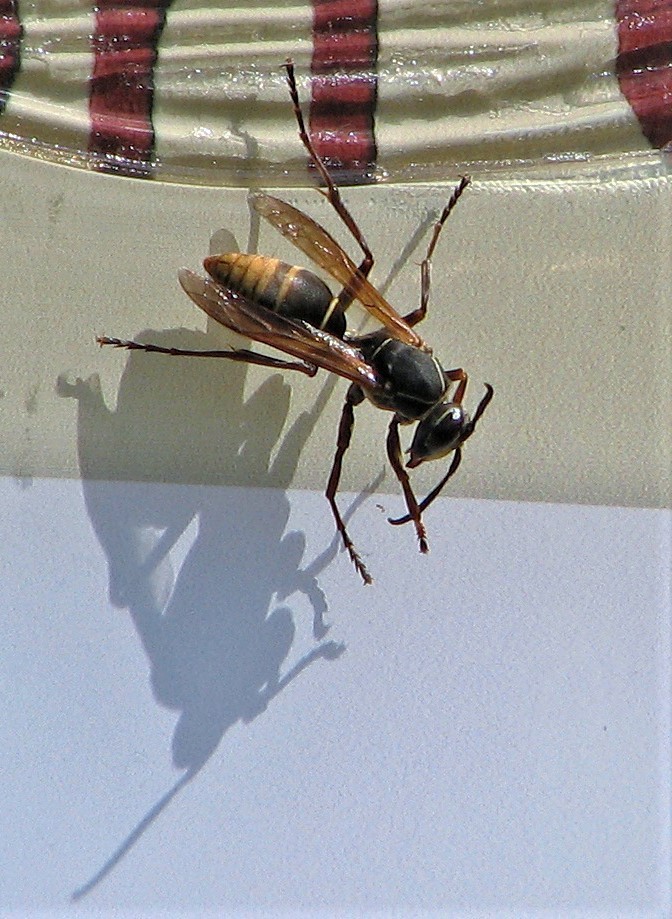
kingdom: Animalia
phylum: Arthropoda
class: Insecta
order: Hymenoptera
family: Eumenidae
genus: Polistes
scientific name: Polistes cinerascens
